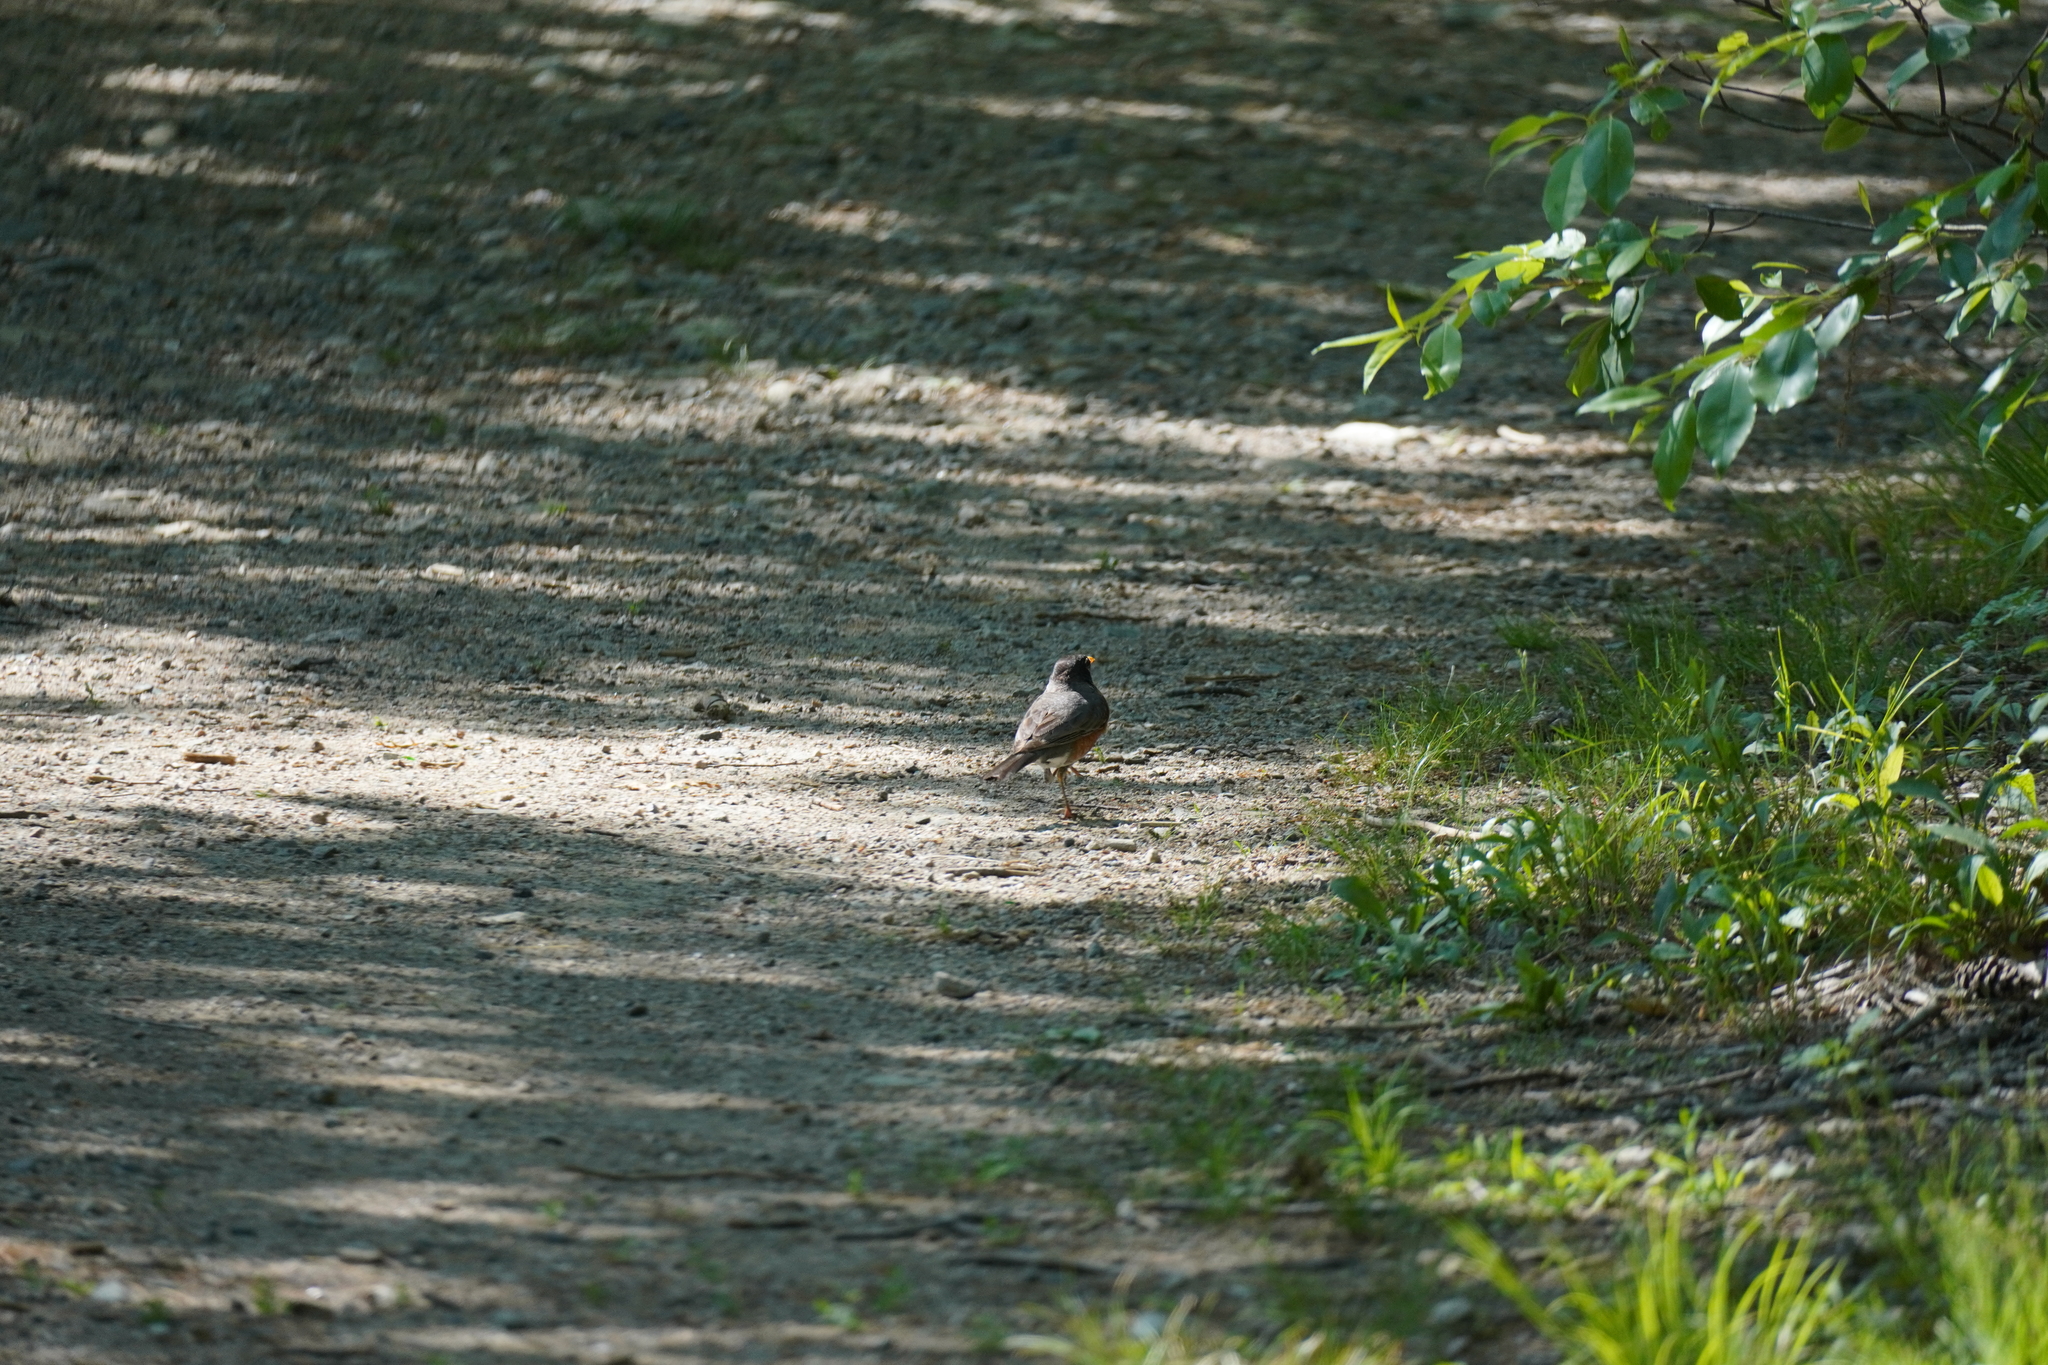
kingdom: Animalia
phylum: Chordata
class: Aves
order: Passeriformes
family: Turdidae
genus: Turdus
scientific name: Turdus migratorius
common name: American robin
